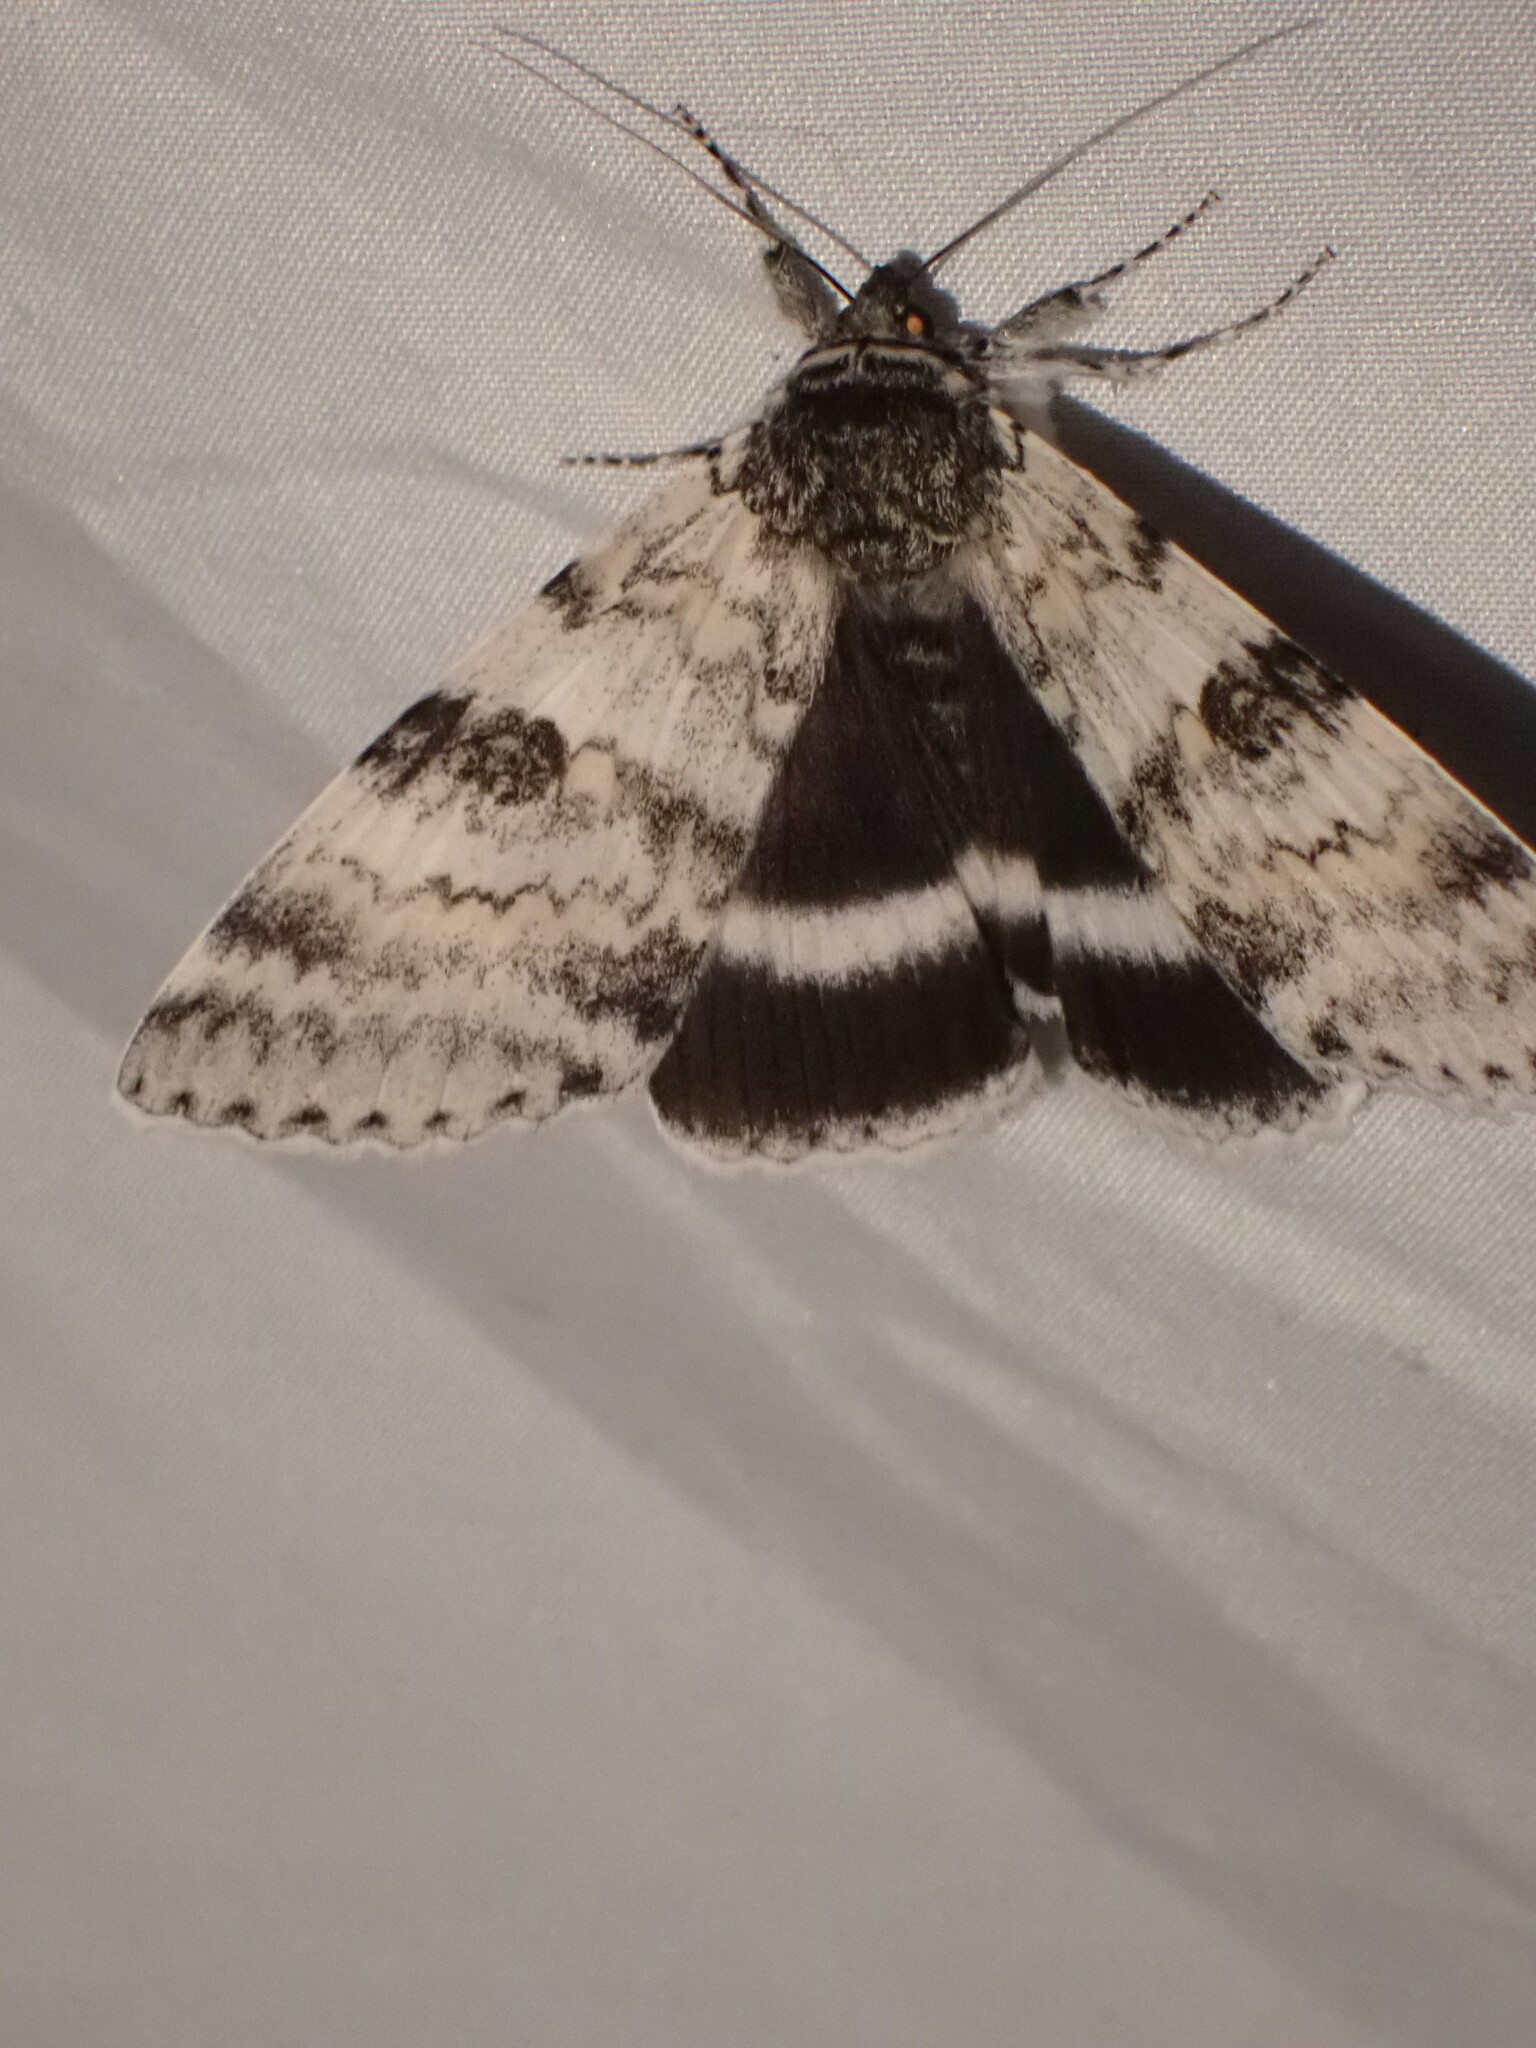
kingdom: Animalia
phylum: Arthropoda
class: Insecta
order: Lepidoptera
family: Erebidae
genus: Catocala
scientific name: Catocala relicta
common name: White underwing
